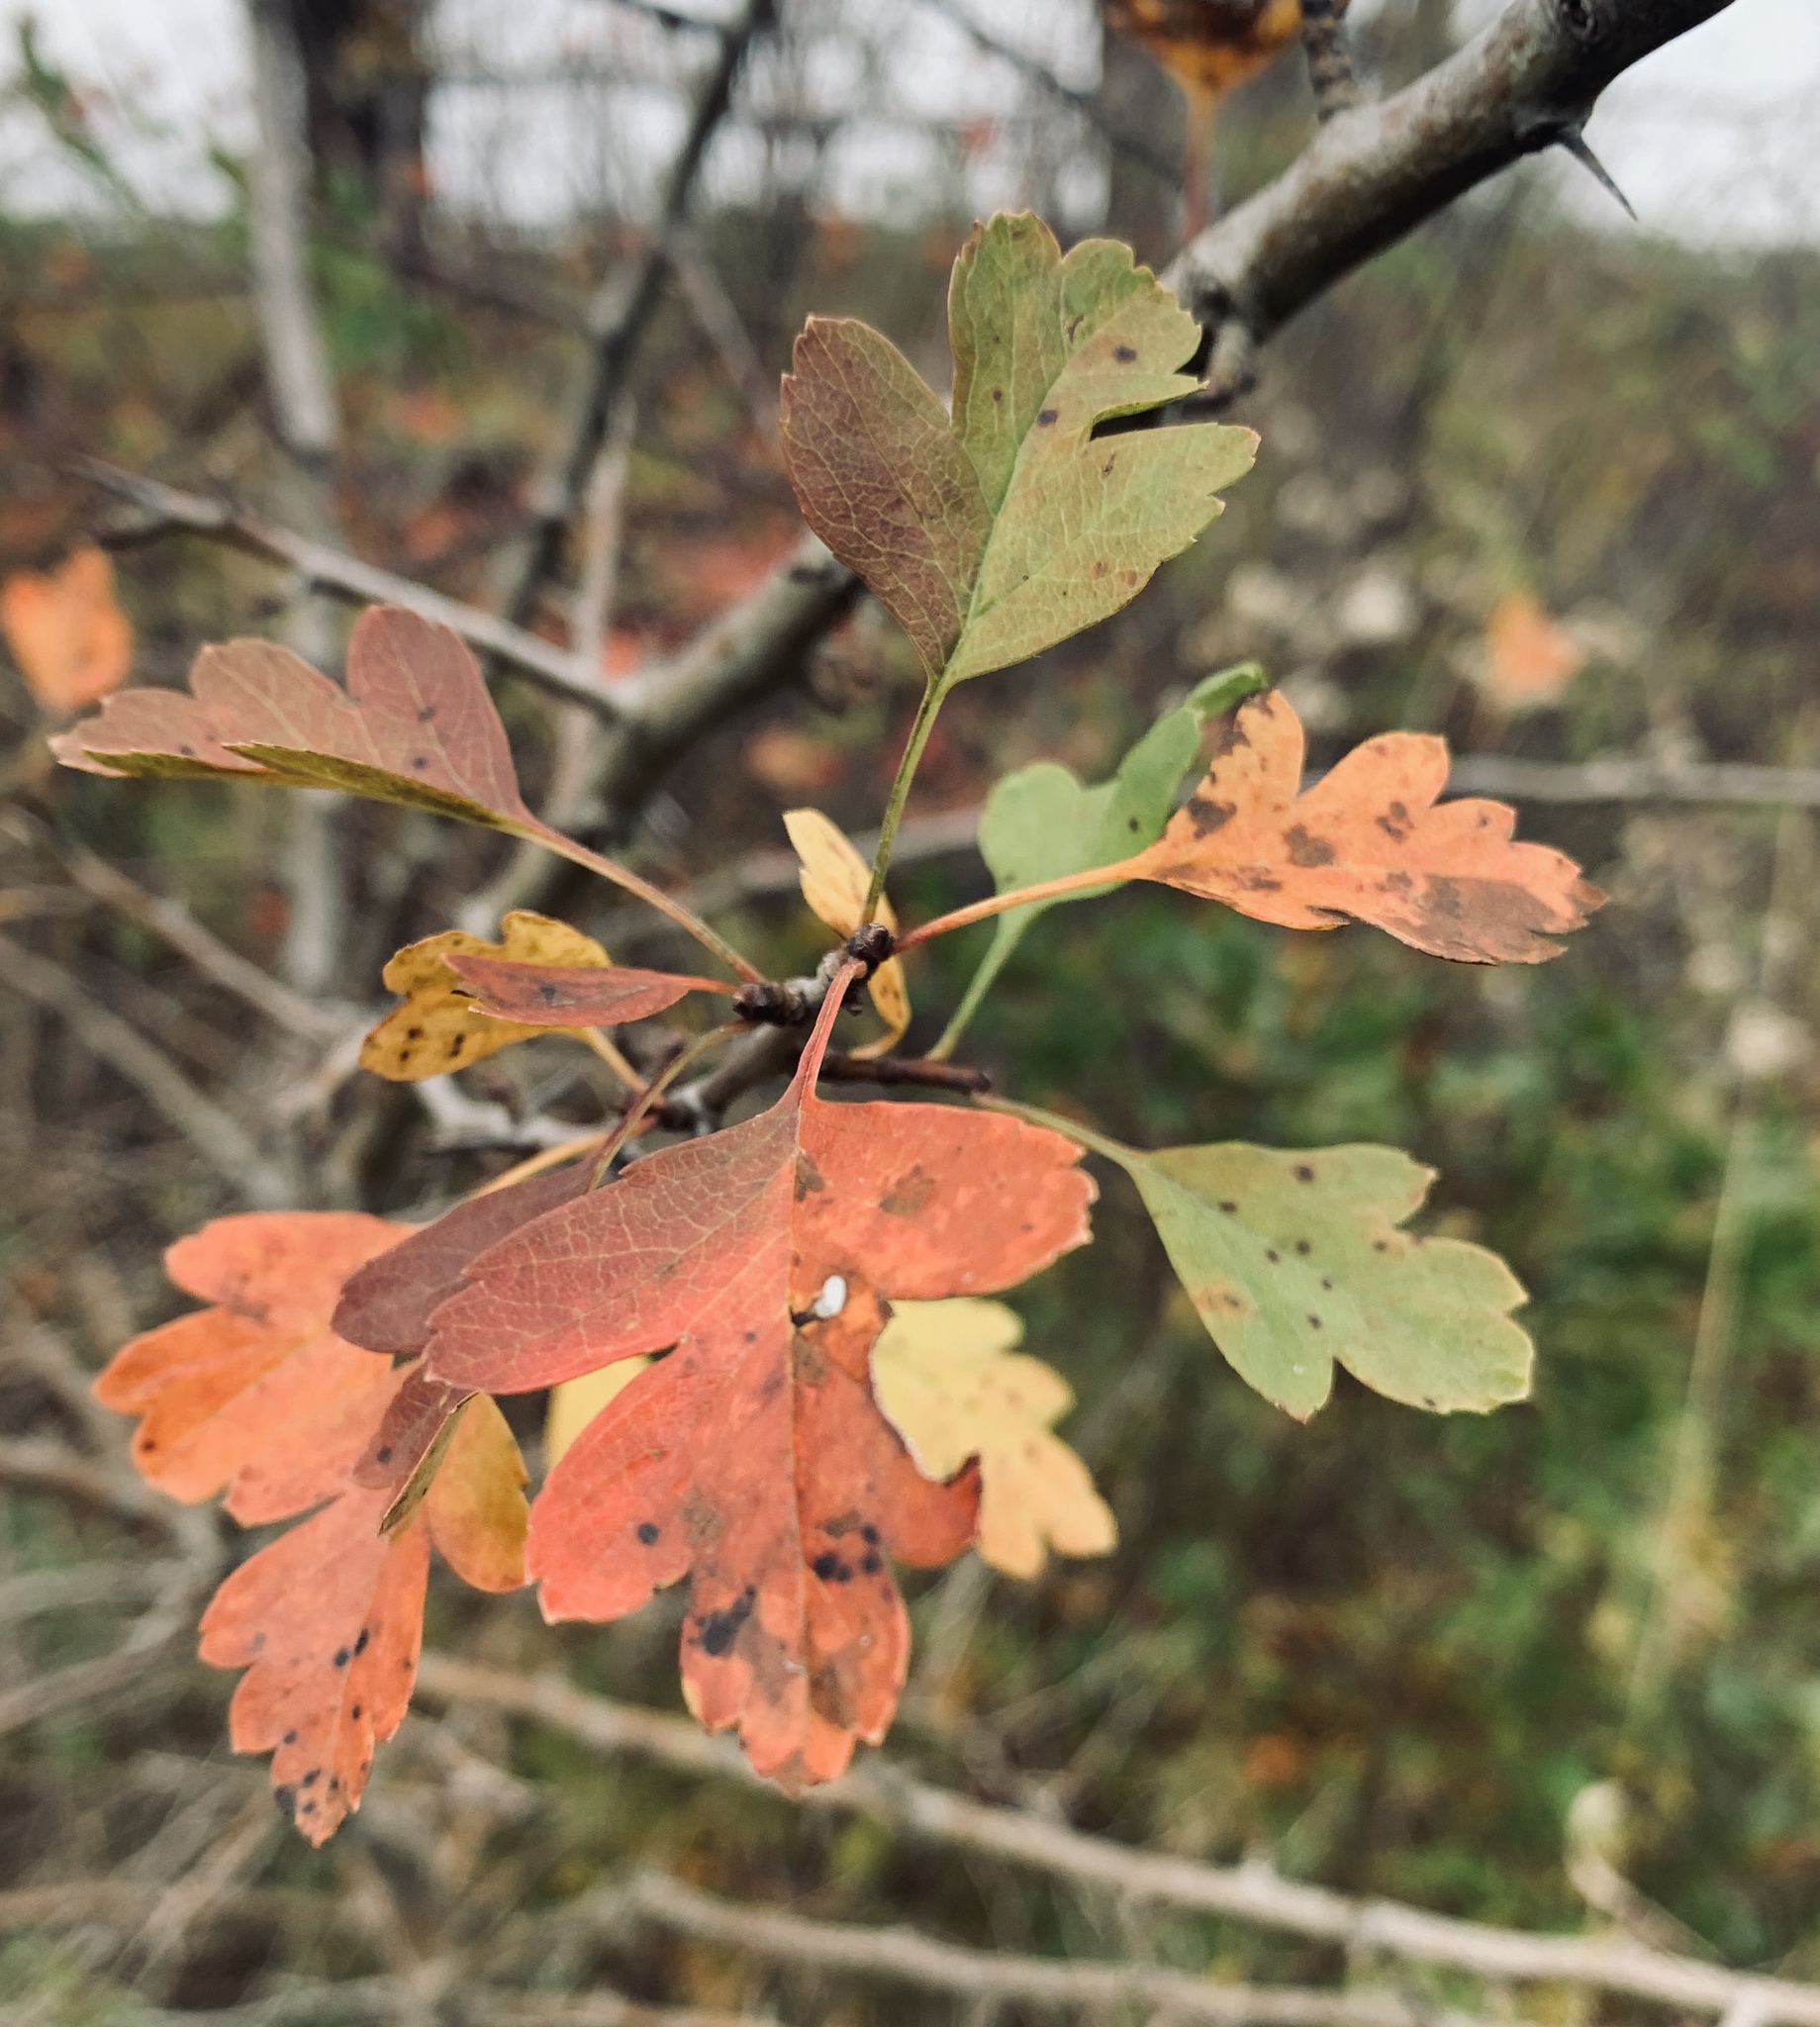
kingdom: Plantae
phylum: Tracheophyta
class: Magnoliopsida
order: Rosales
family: Rosaceae
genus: Crataegus
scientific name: Crataegus monogyna
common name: Hawthorn
